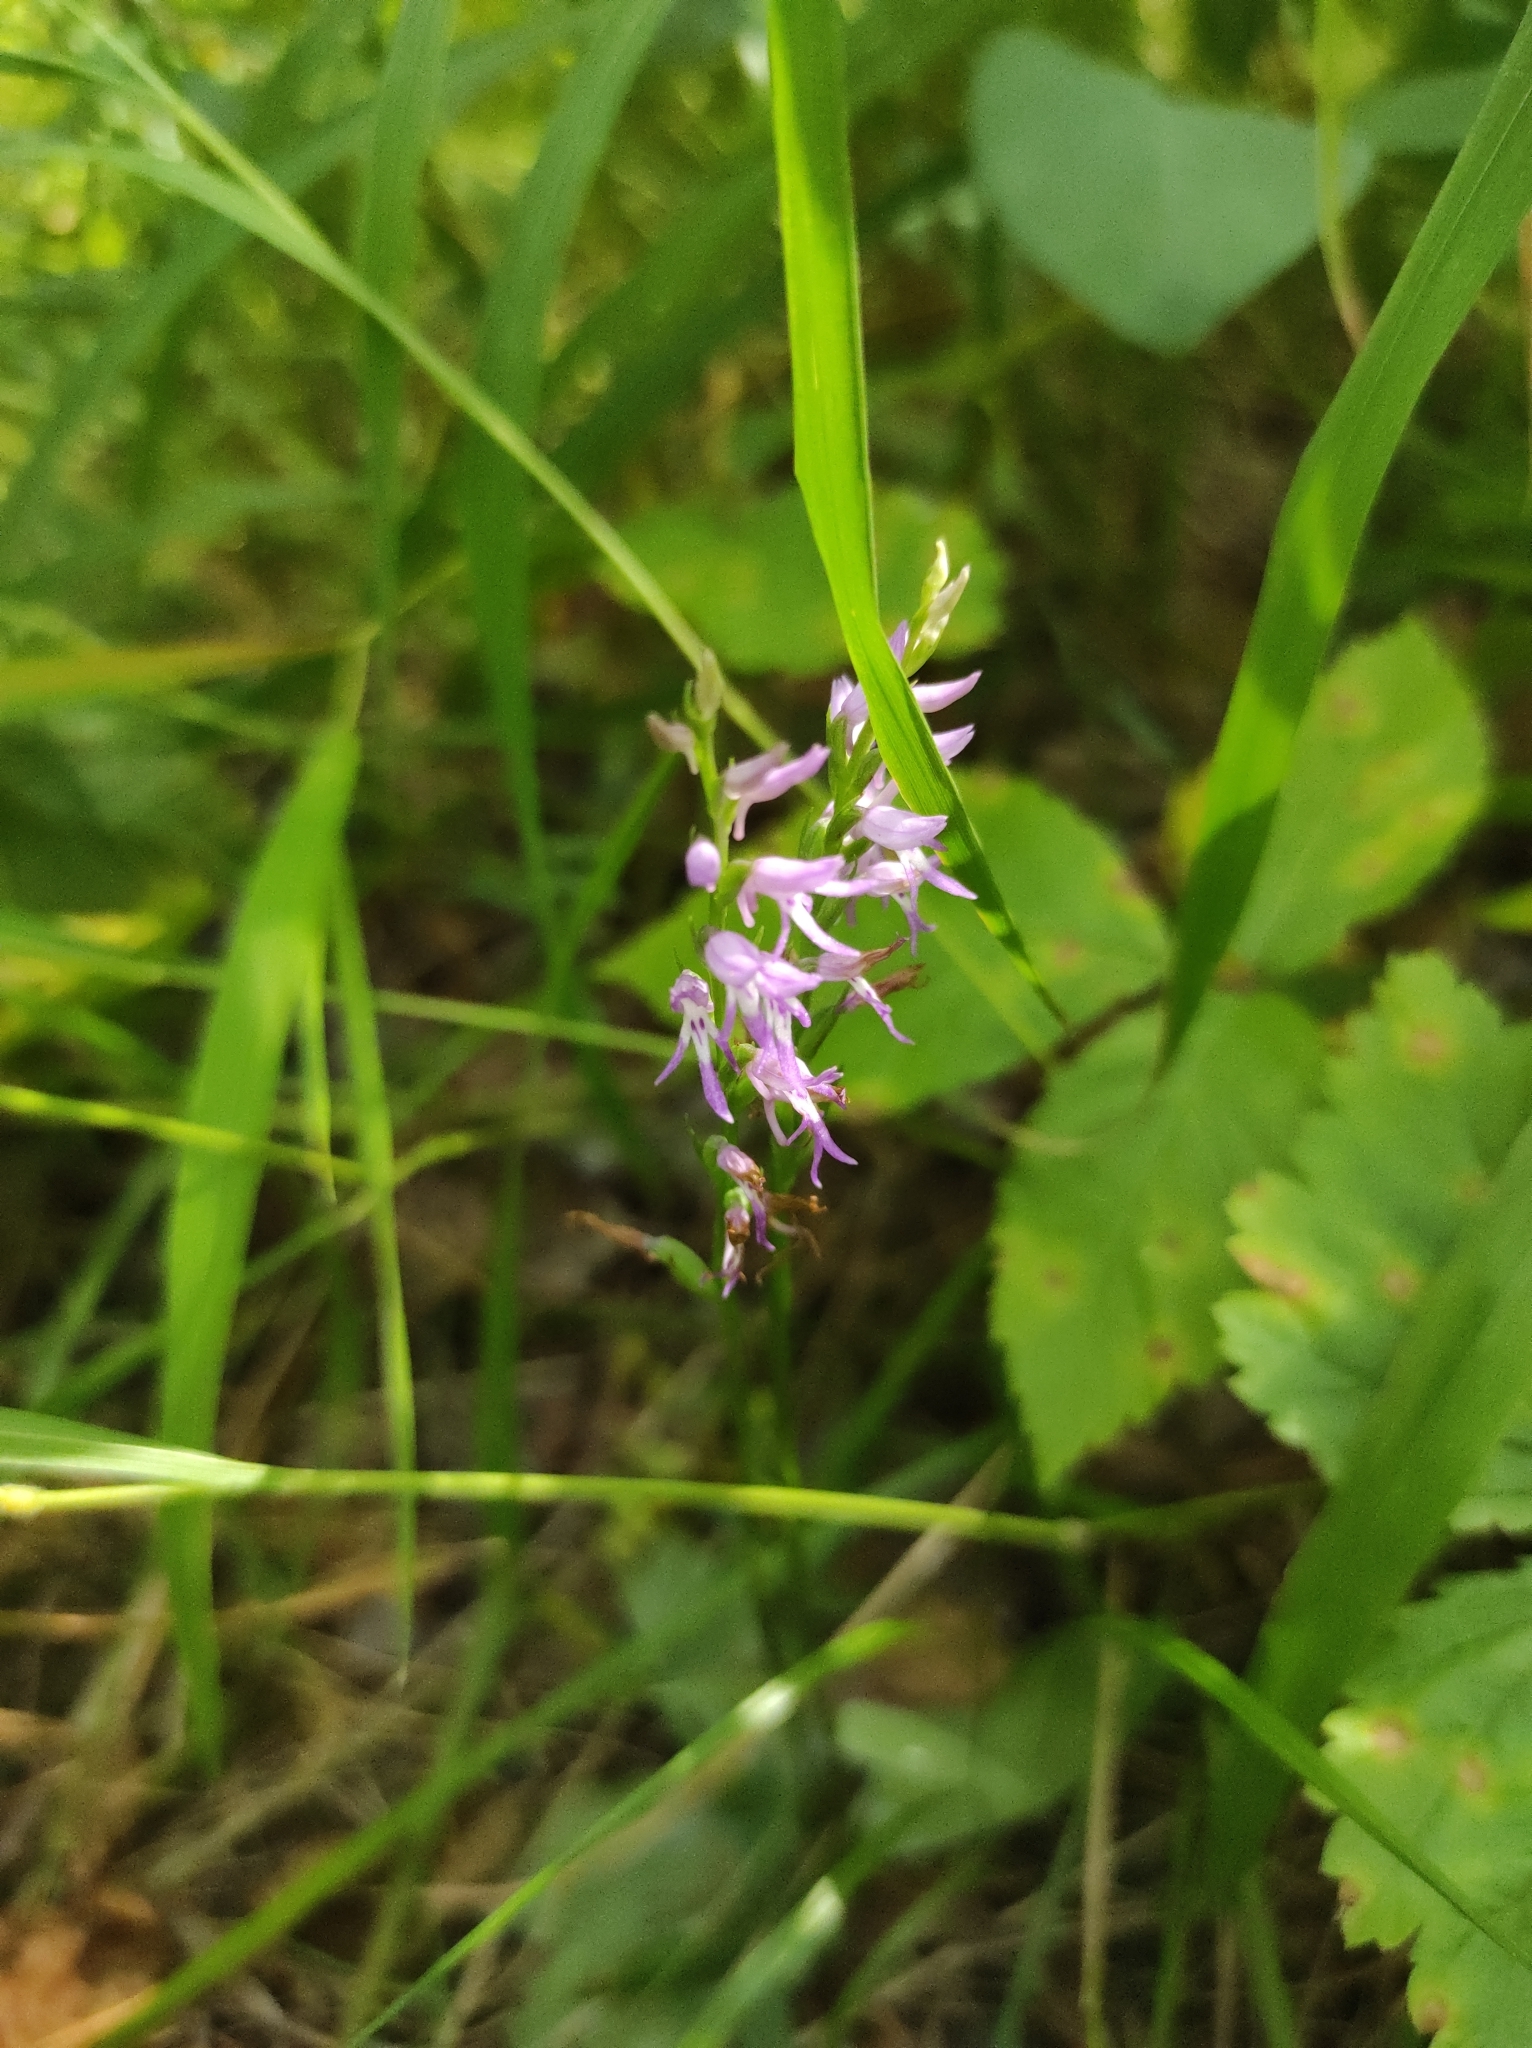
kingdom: Plantae
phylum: Tracheophyta
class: Liliopsida
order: Asparagales
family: Orchidaceae
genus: Hemipilia
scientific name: Hemipilia cucullata
